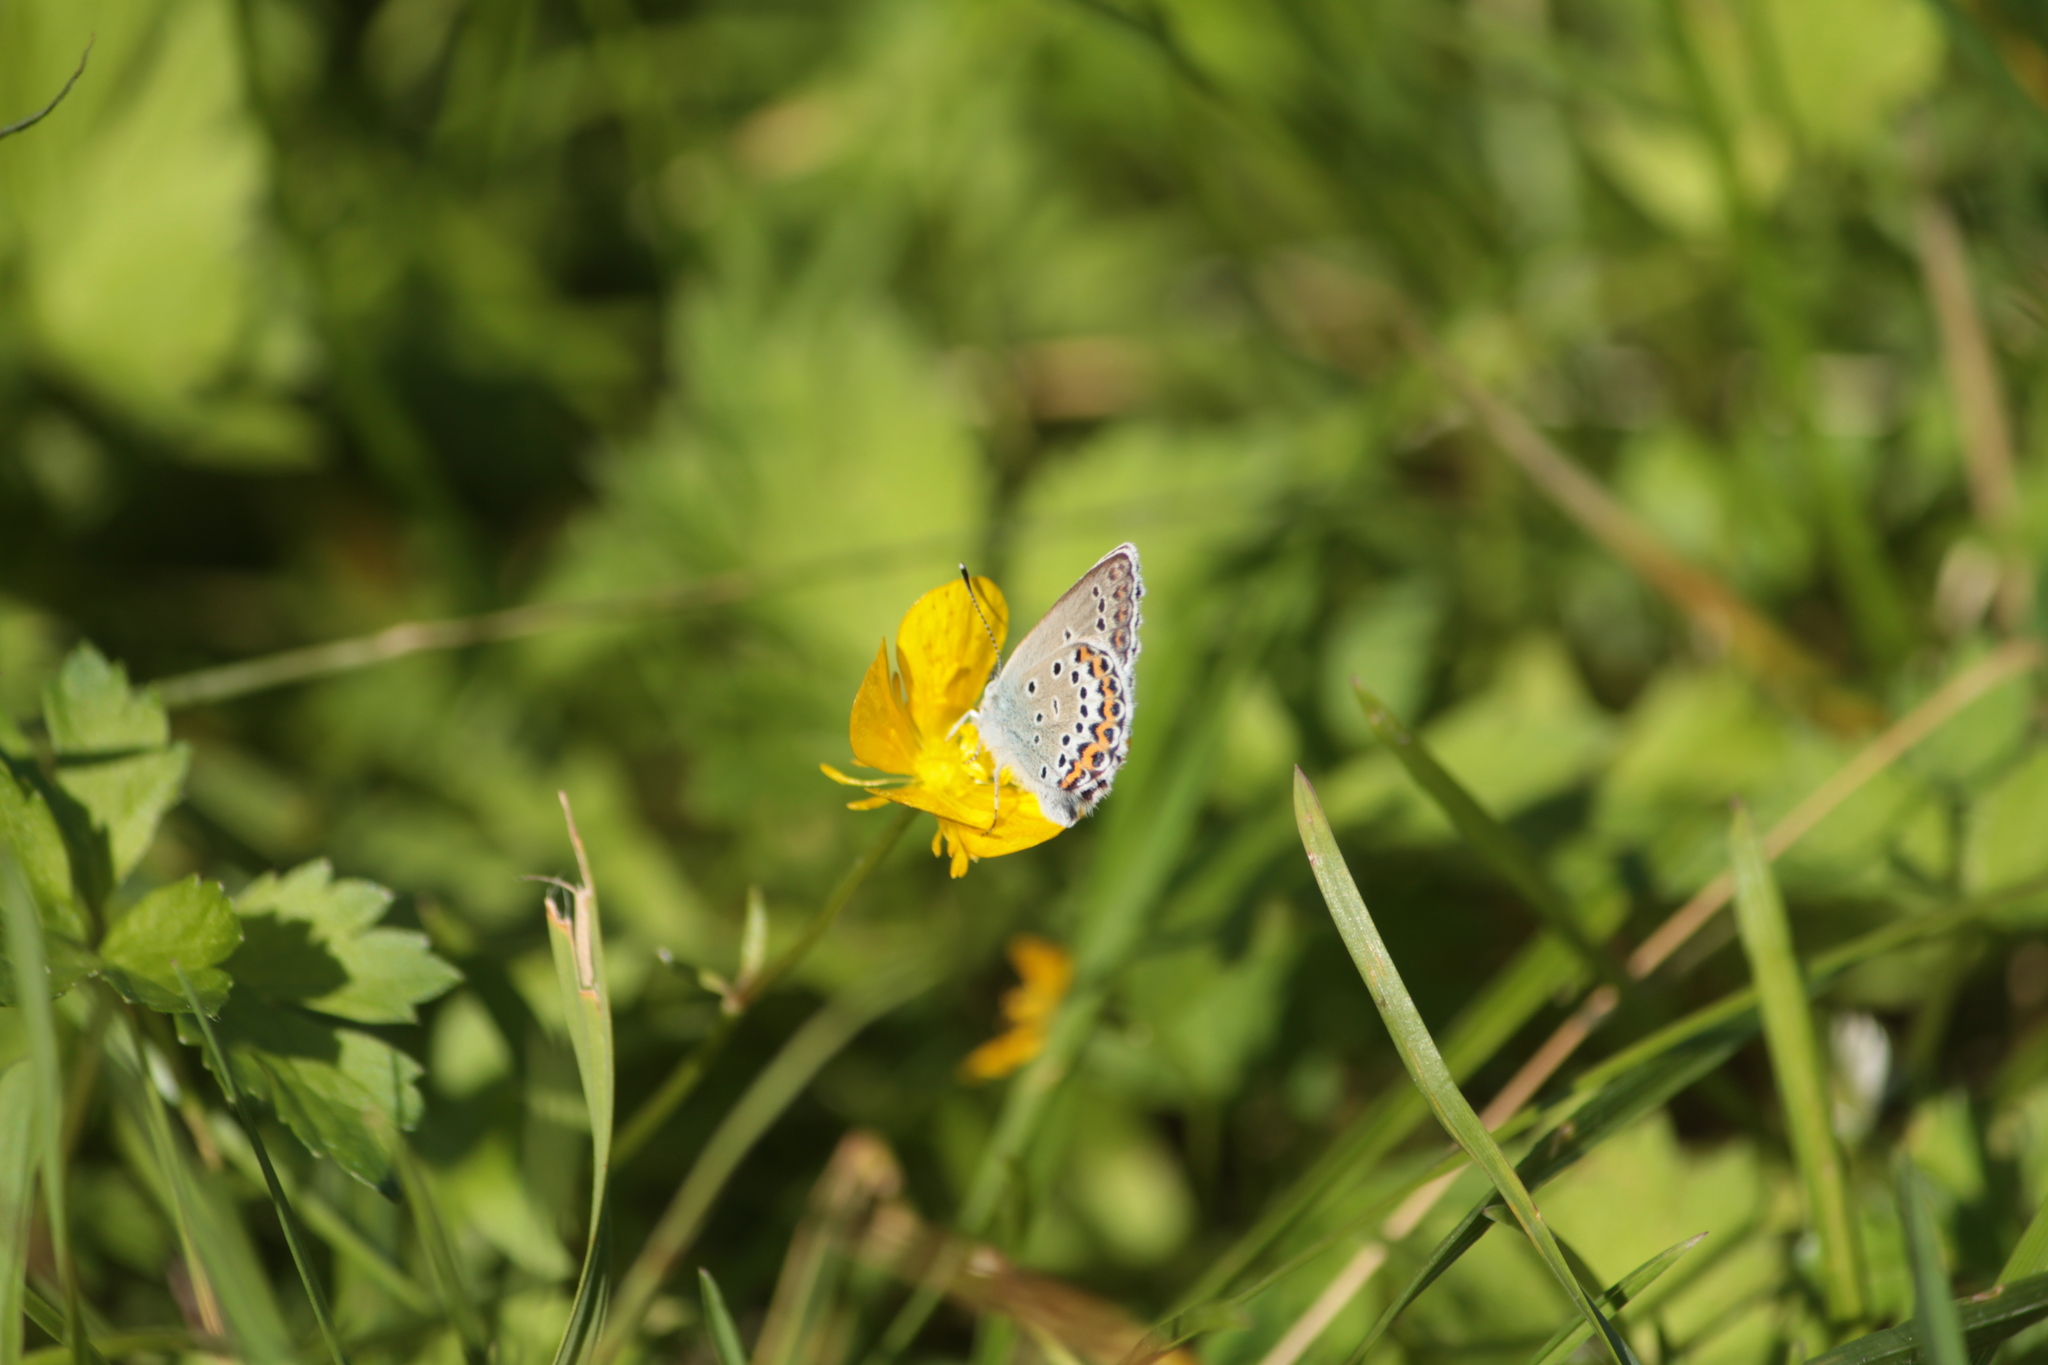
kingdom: Animalia
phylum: Arthropoda
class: Insecta
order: Lepidoptera
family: Lycaenidae
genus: Lycaeides
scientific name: Lycaeides idas
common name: Northern blue
